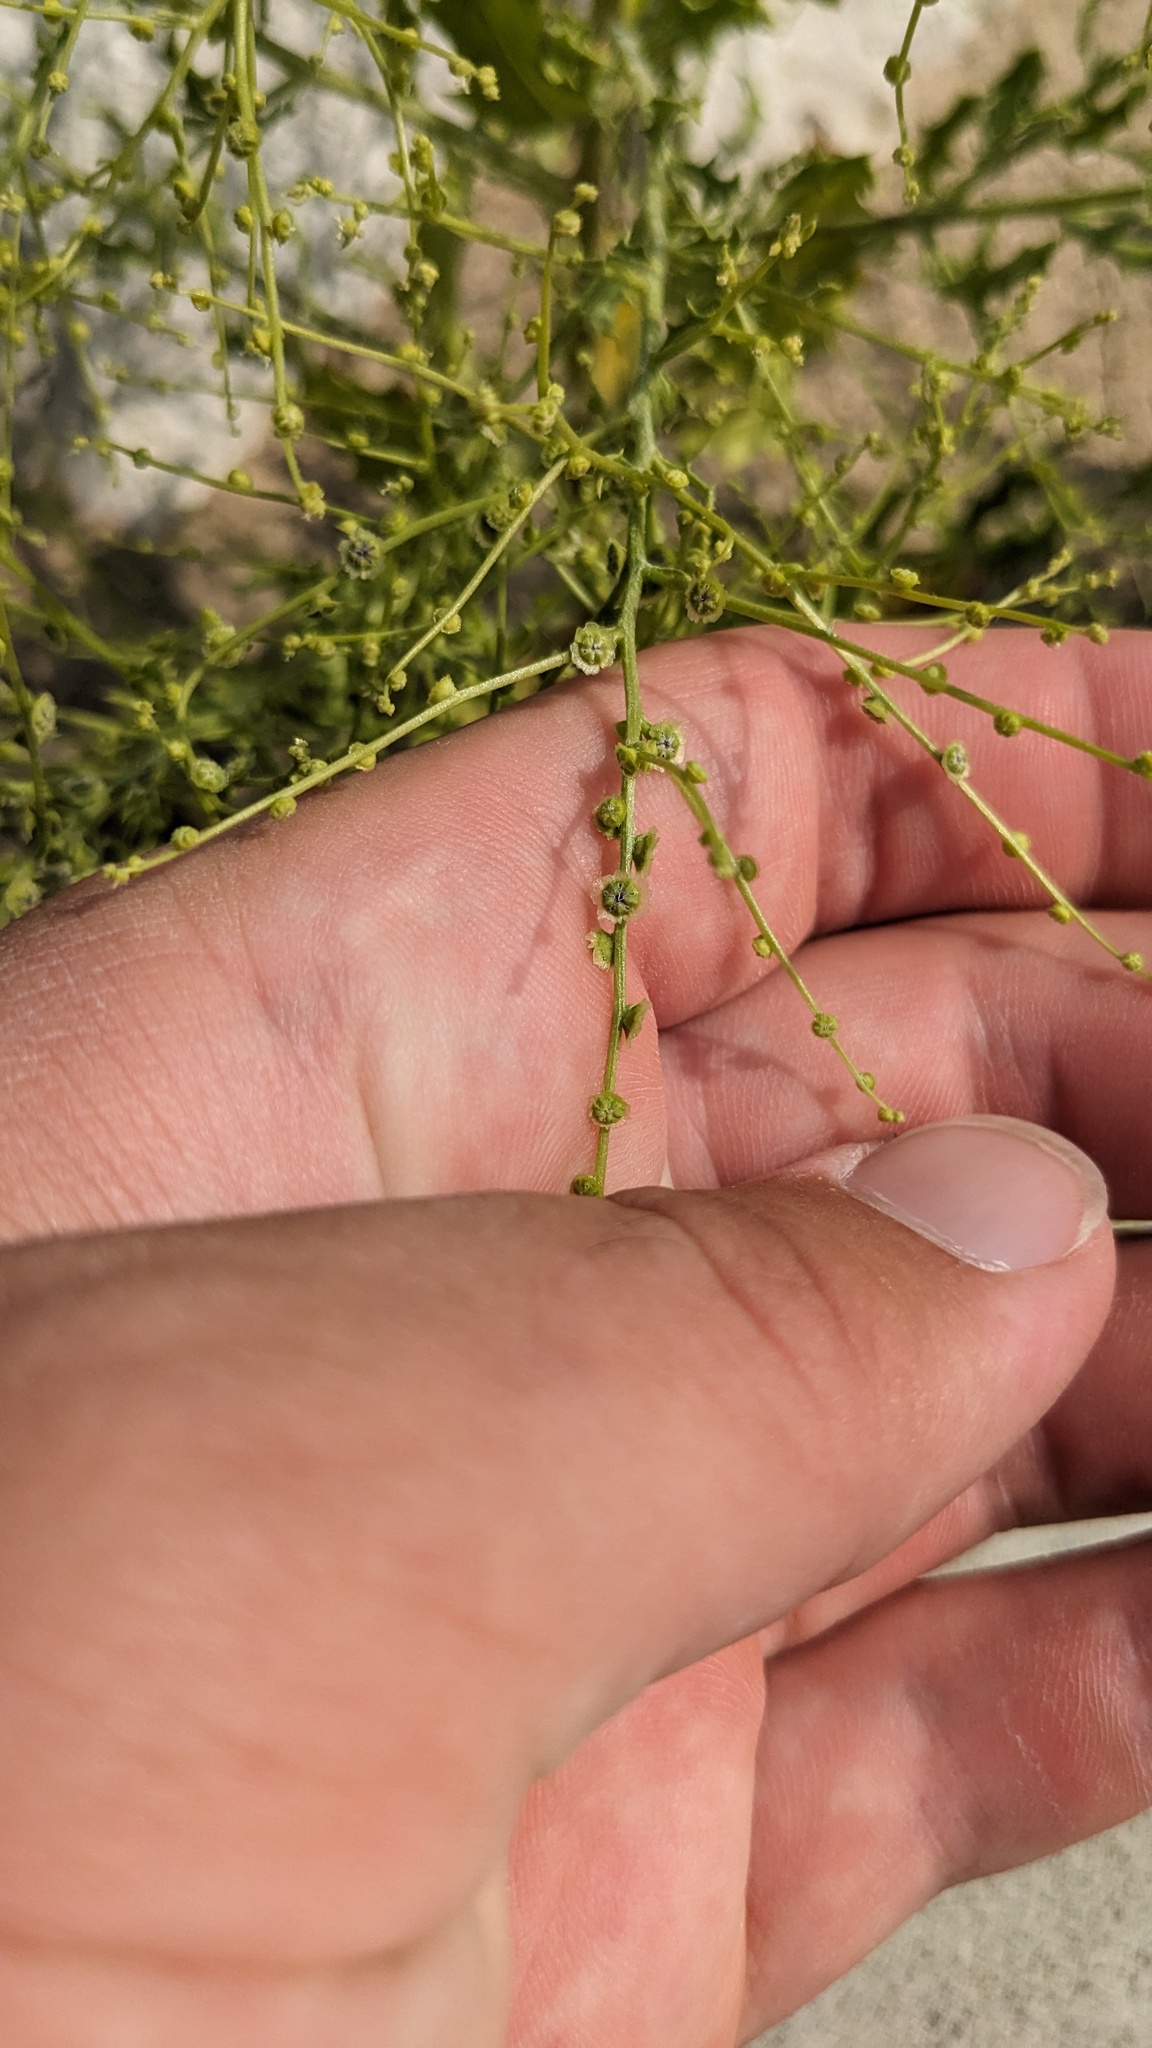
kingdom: Plantae
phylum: Tracheophyta
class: Magnoliopsida
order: Caryophyllales
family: Amaranthaceae
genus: Dysphania
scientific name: Dysphania atriplicifolia
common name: Plains tumbleweed
